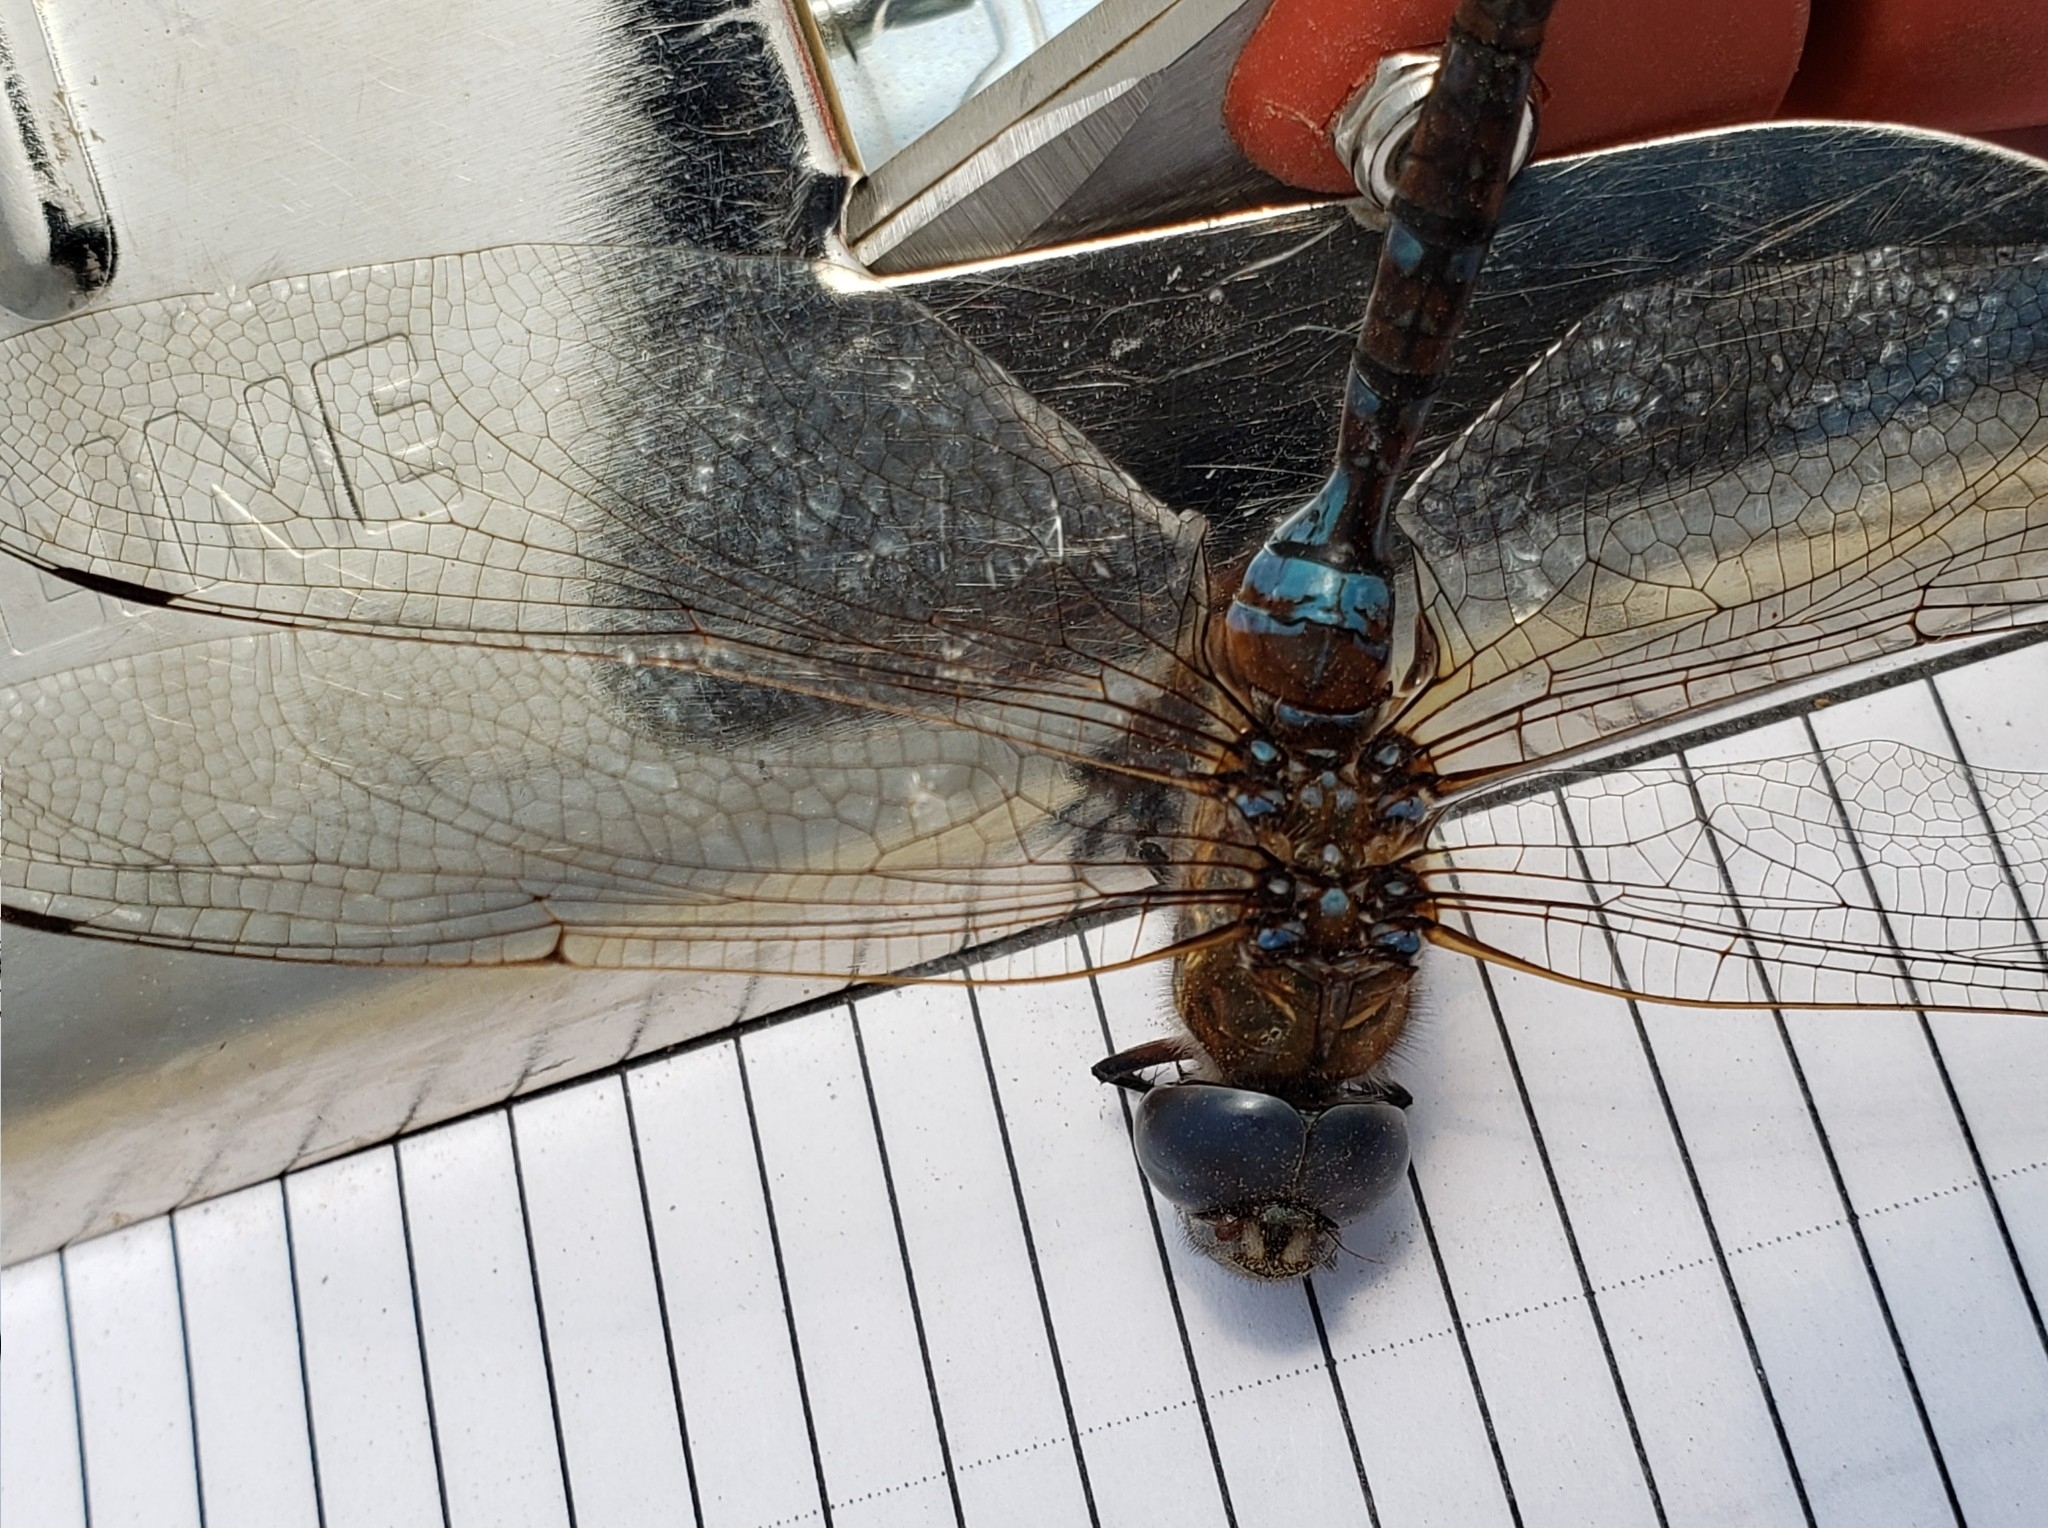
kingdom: Animalia
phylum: Arthropoda
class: Insecta
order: Odonata
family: Aeshnidae
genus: Rhionaeschna
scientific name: Rhionaeschna multicolor
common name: Blue-eyed darner
